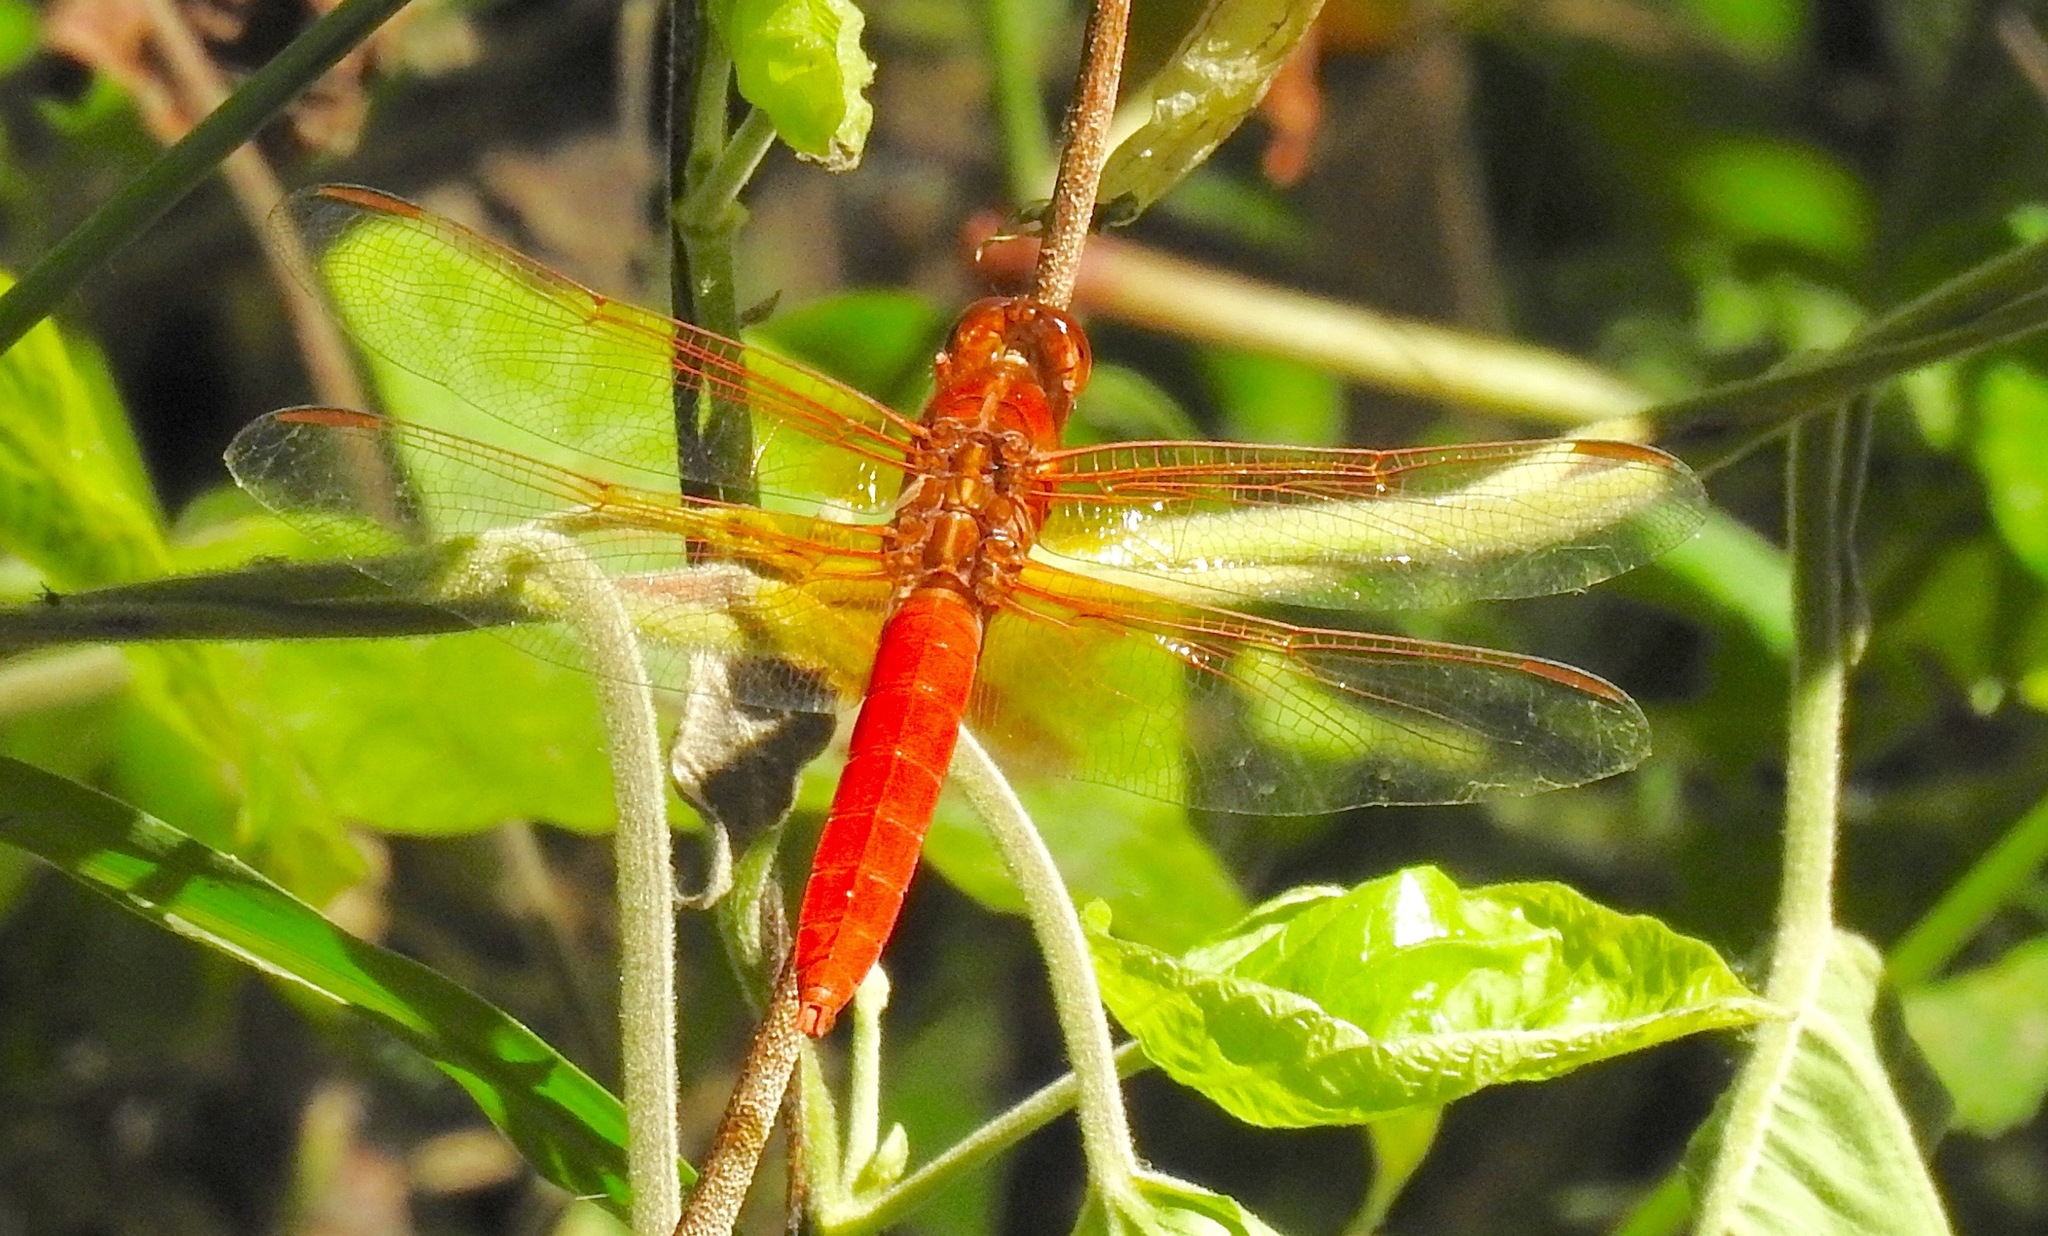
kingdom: Animalia
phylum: Arthropoda
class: Insecta
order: Odonata
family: Libellulidae
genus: Libellula
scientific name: Libellula croceipennis
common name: Neon skimmer
